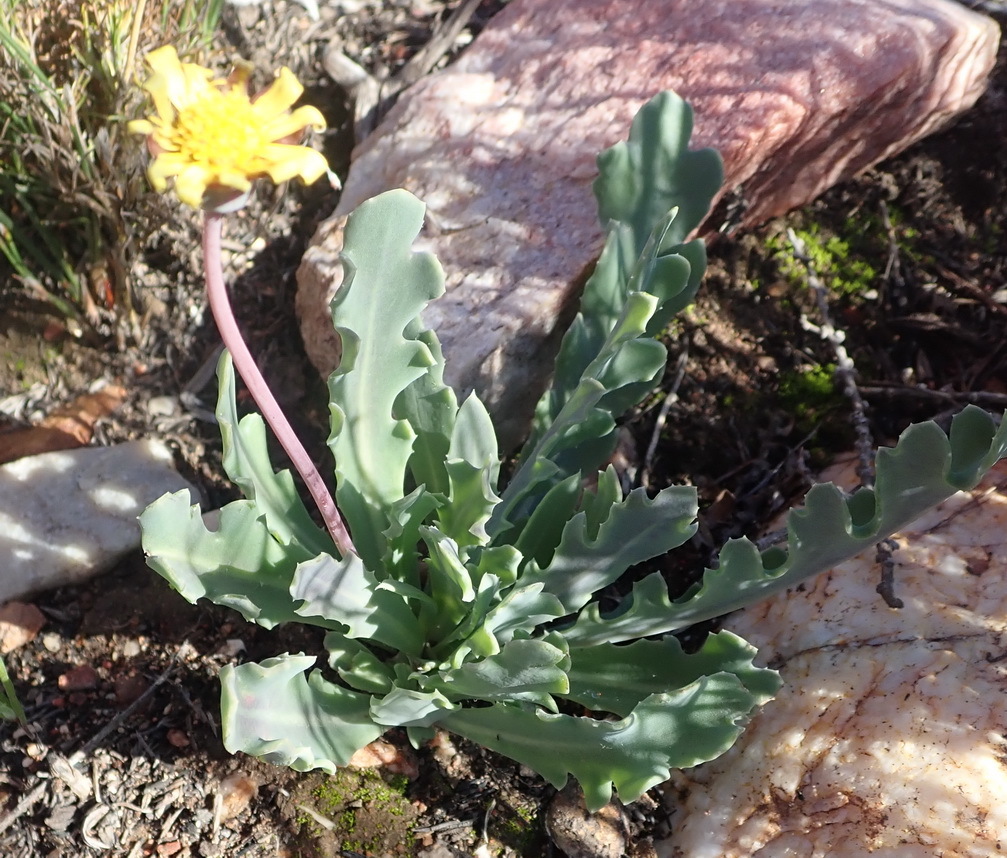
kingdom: Plantae
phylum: Tracheophyta
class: Magnoliopsida
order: Asterales
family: Asteraceae
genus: Othonna
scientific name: Othonna auriculifolia
